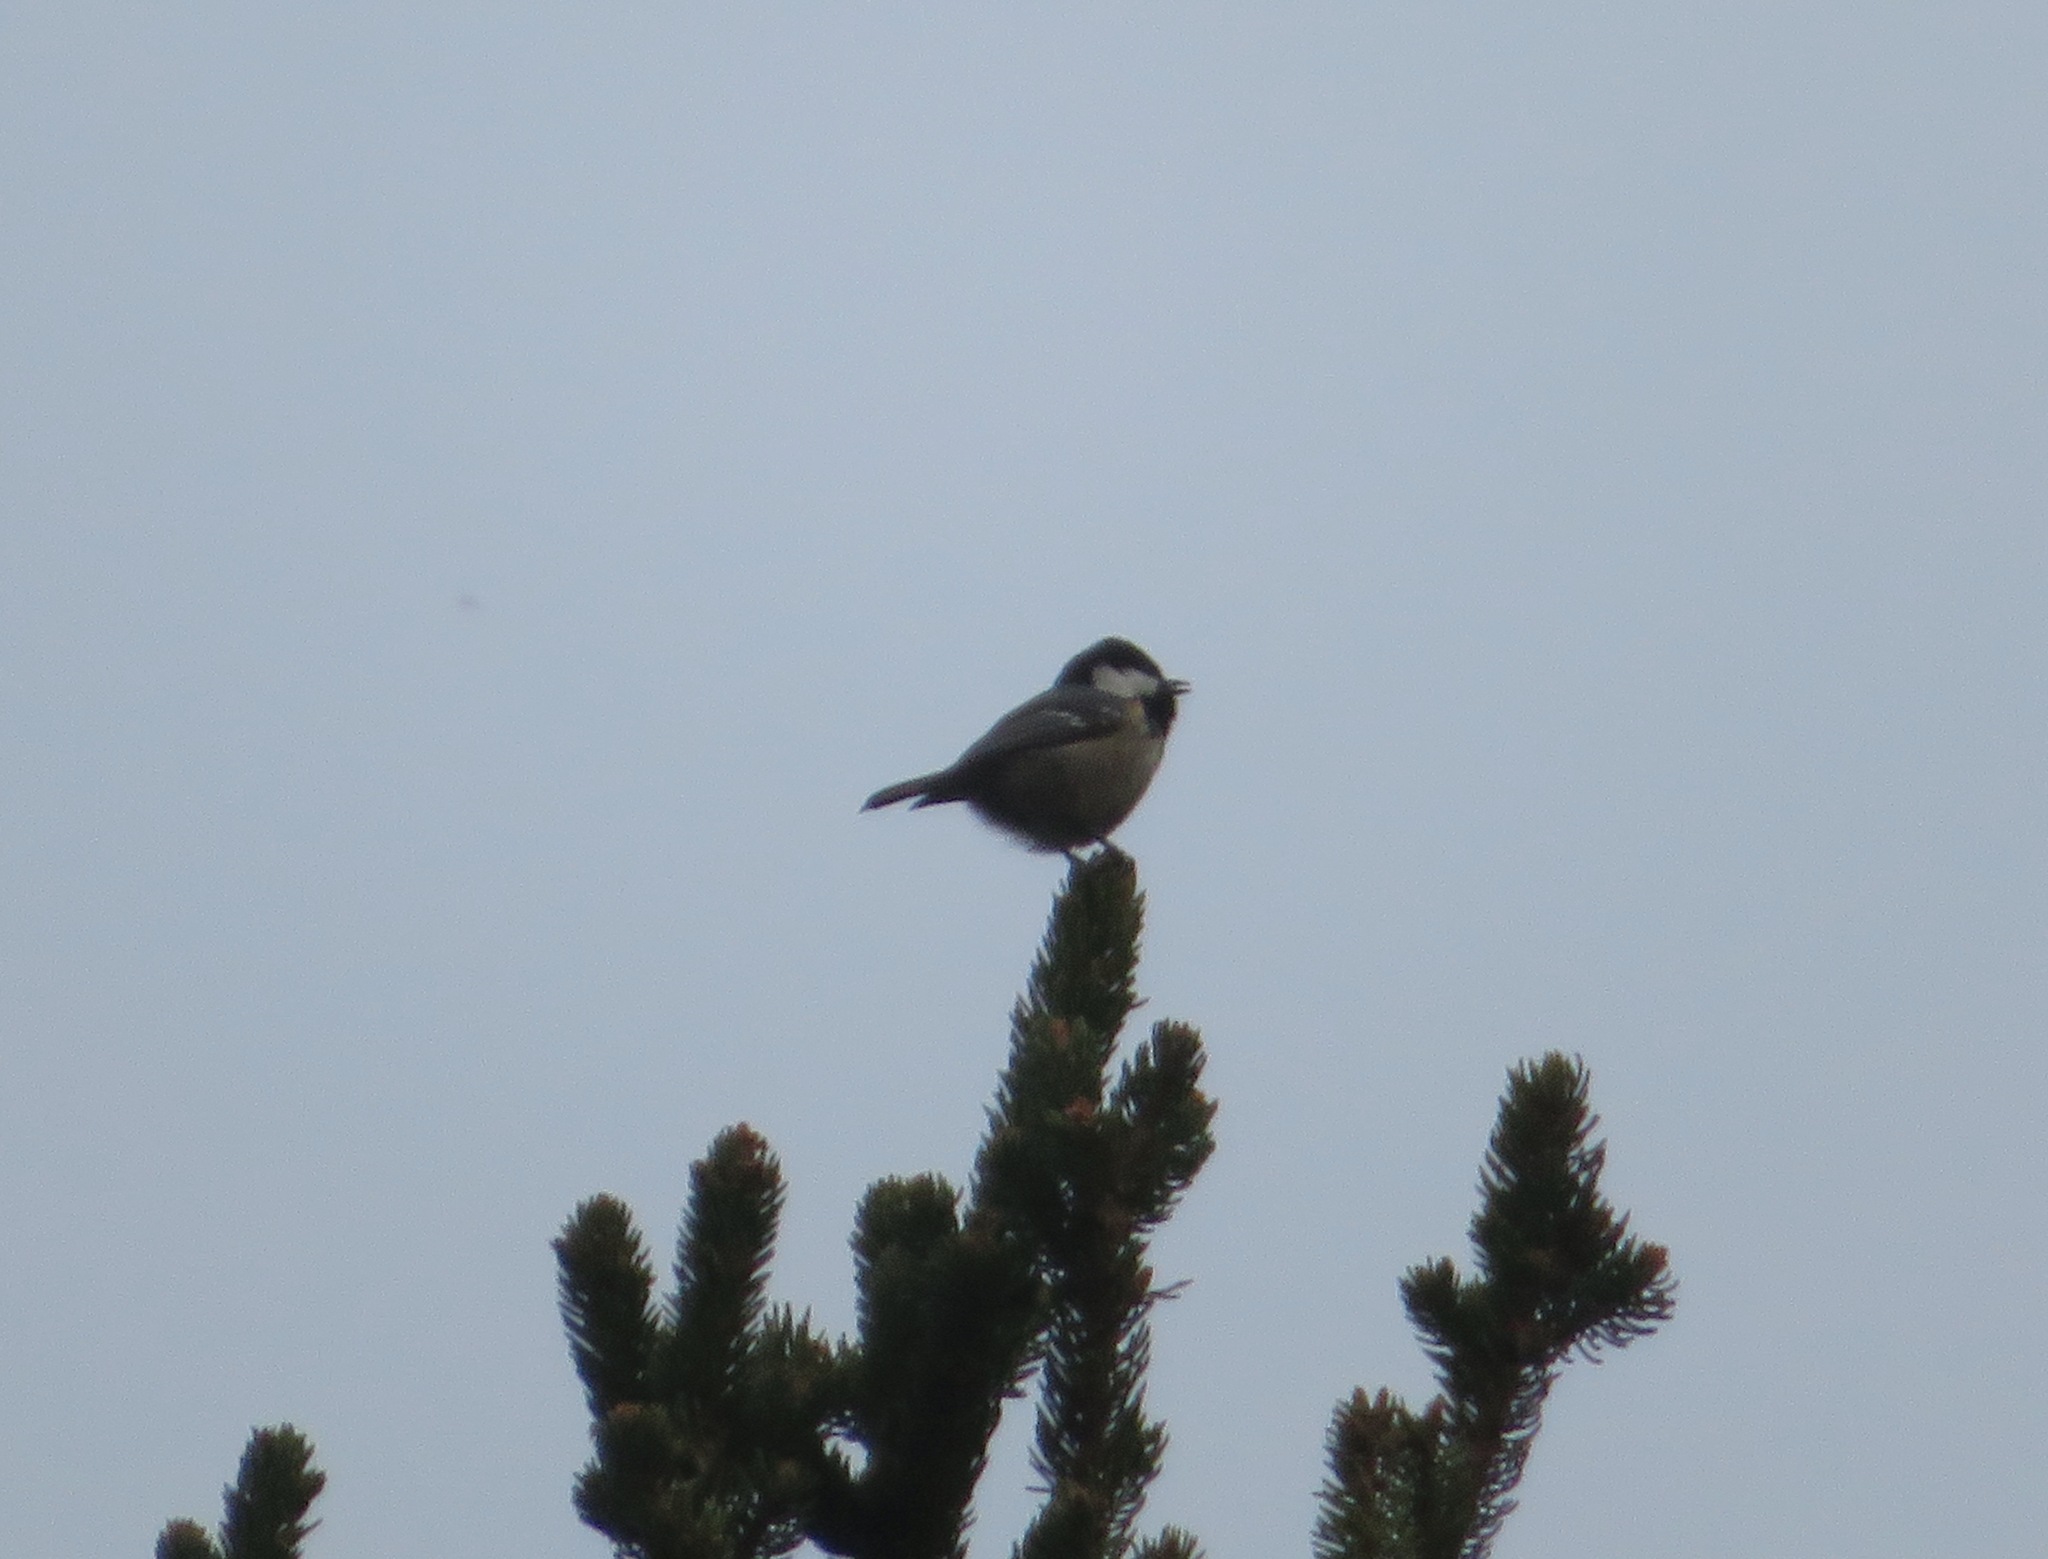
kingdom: Animalia
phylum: Chordata
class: Aves
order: Passeriformes
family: Paridae
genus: Periparus
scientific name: Periparus ater
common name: Coal tit
